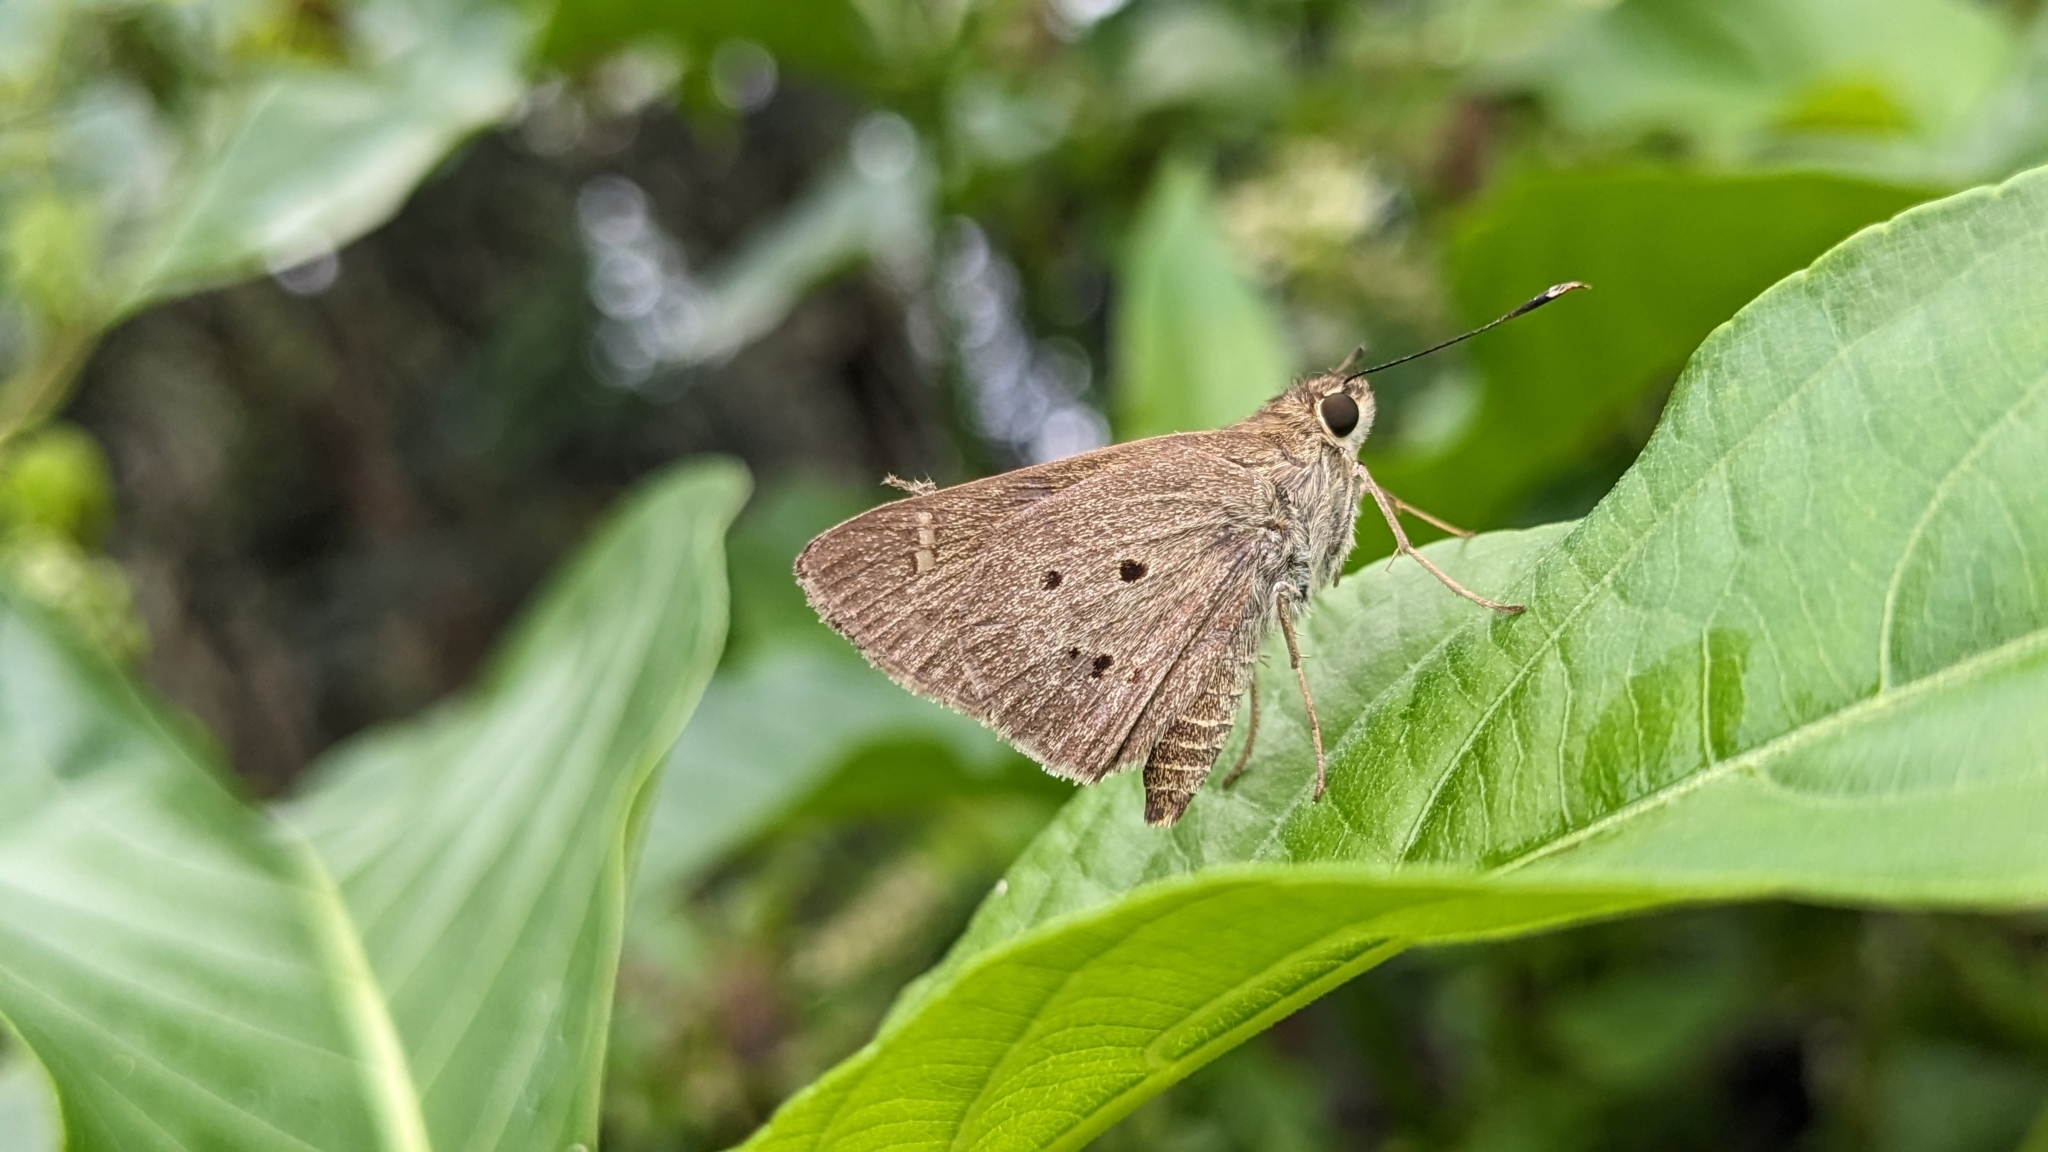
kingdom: Animalia
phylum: Arthropoda
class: Insecta
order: Lepidoptera
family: Hesperiidae
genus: Suastus
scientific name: Suastus gremius
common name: Indian palm bob
